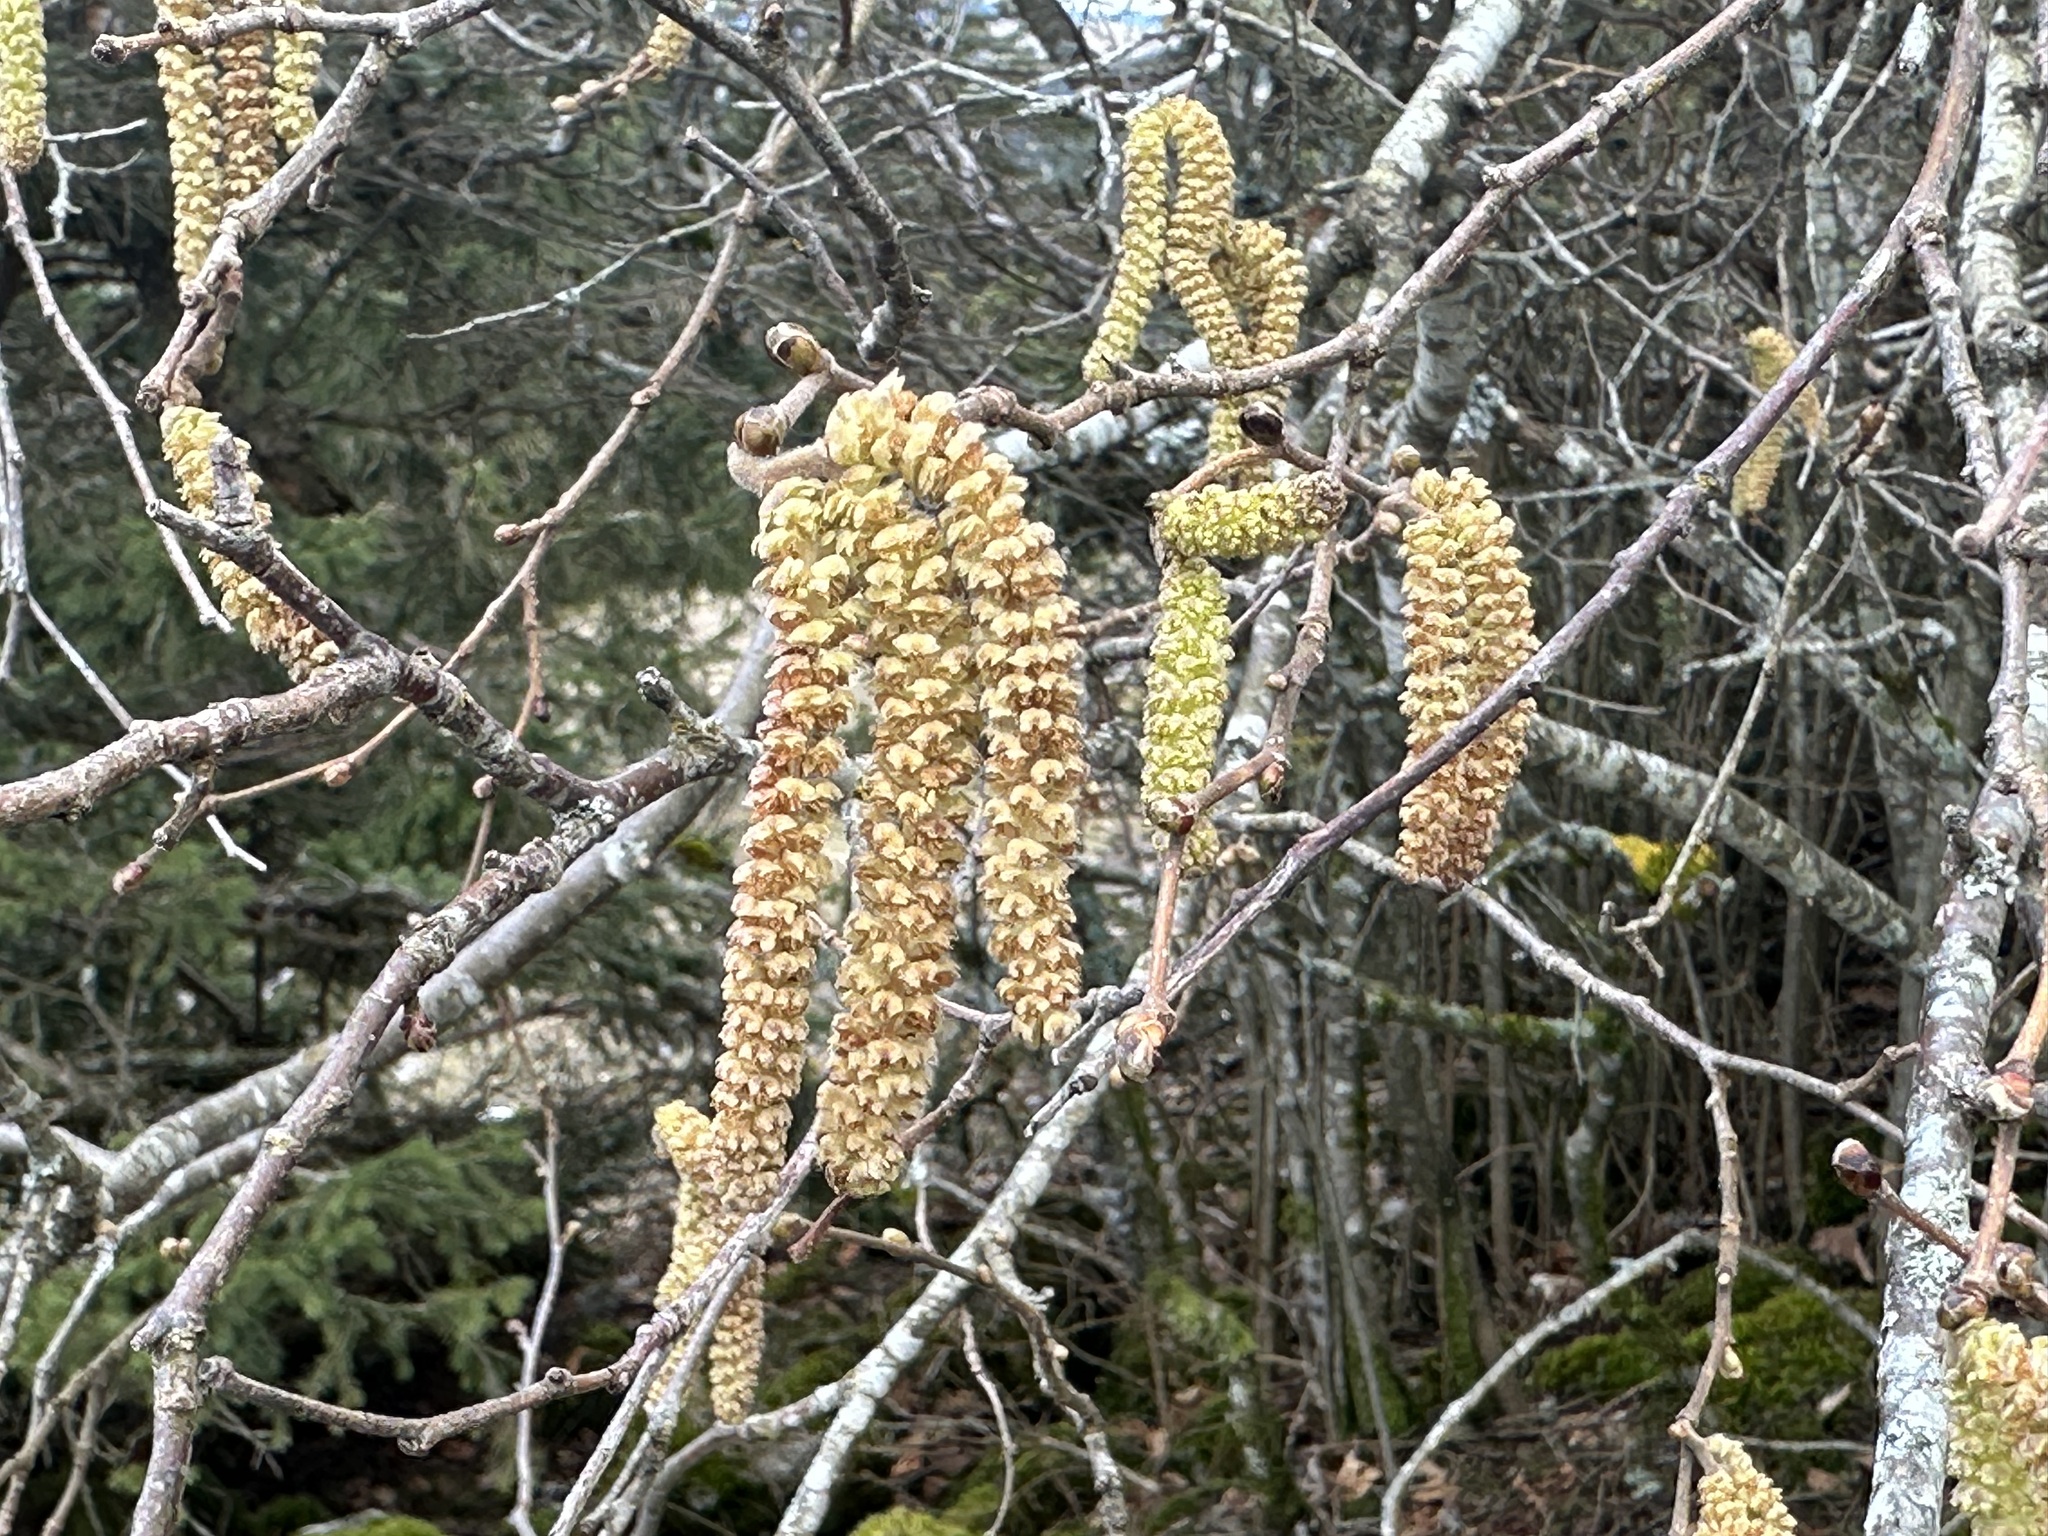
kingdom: Plantae
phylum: Tracheophyta
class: Magnoliopsida
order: Fagales
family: Betulaceae
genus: Corylus
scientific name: Corylus avellana
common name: European hazel
